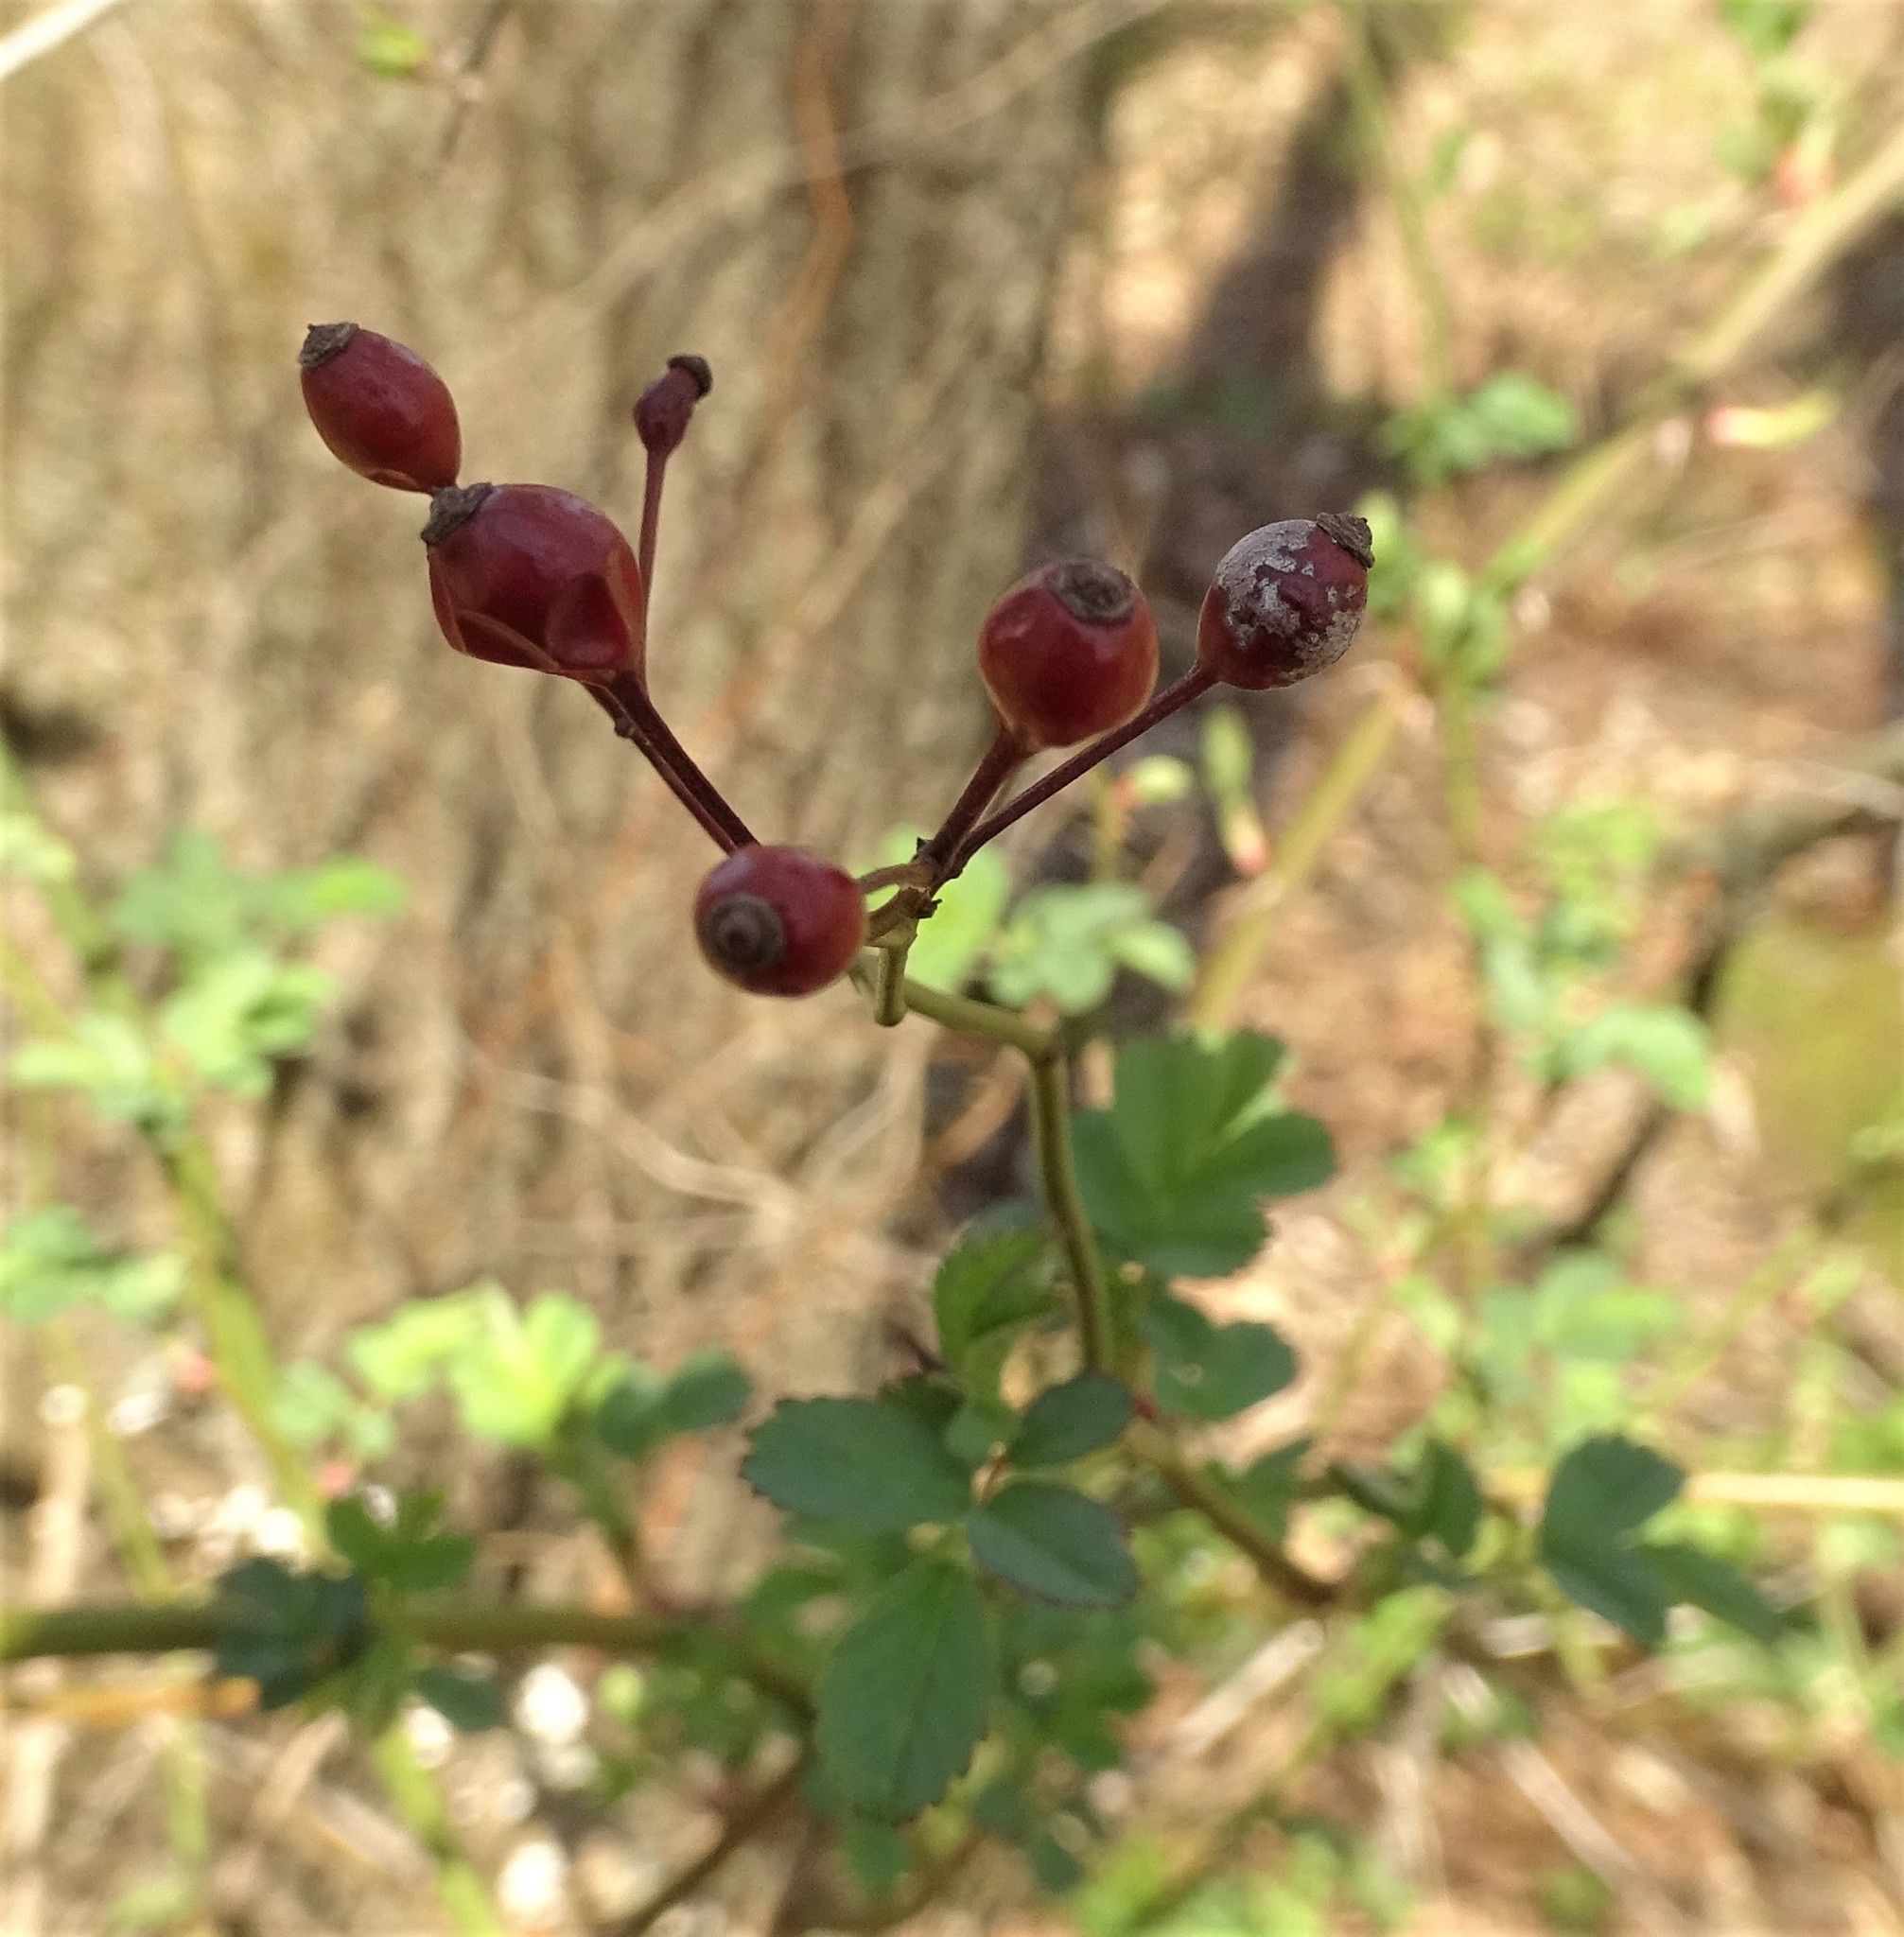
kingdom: Plantae
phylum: Tracheophyta
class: Magnoliopsida
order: Rosales
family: Rosaceae
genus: Rosa
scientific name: Rosa multiflora
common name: Multiflora rose
